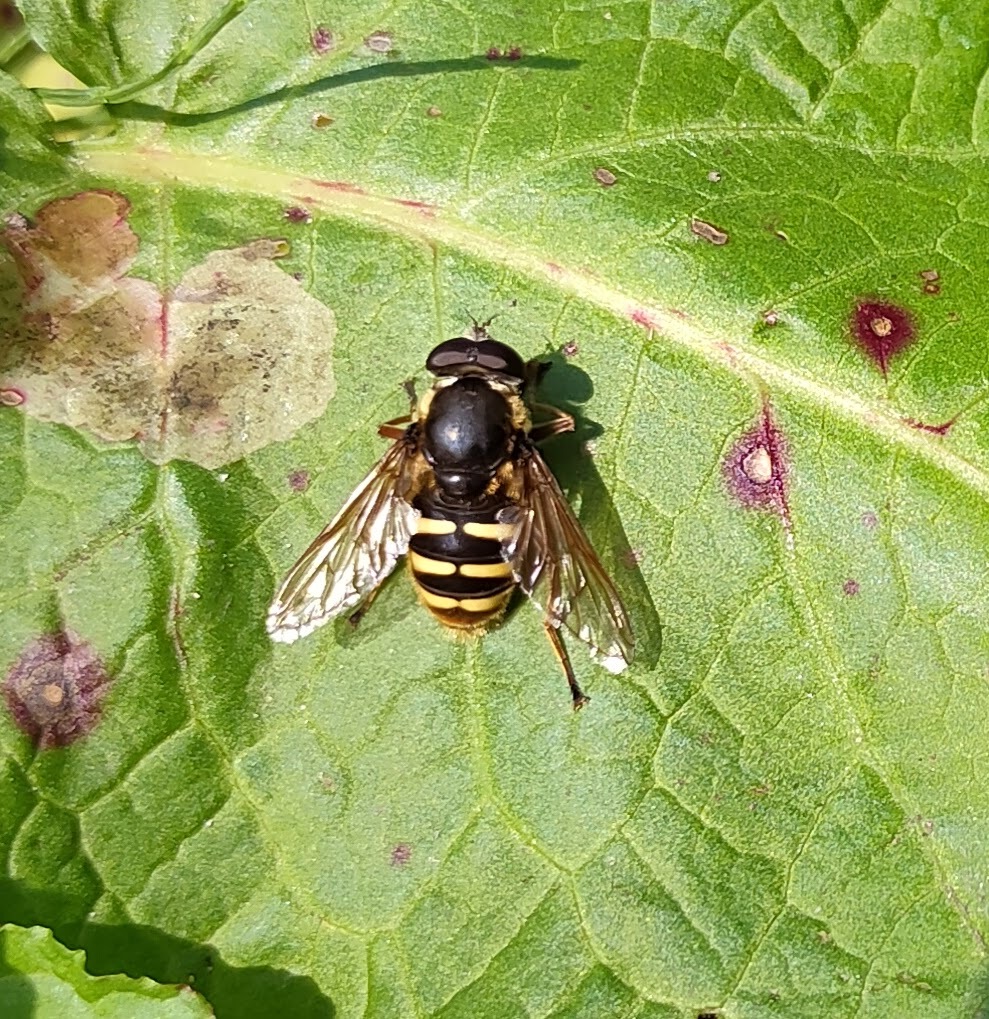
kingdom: Animalia
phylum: Arthropoda
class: Insecta
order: Diptera
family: Syrphidae
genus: Sericomyia
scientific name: Sericomyia silentis
